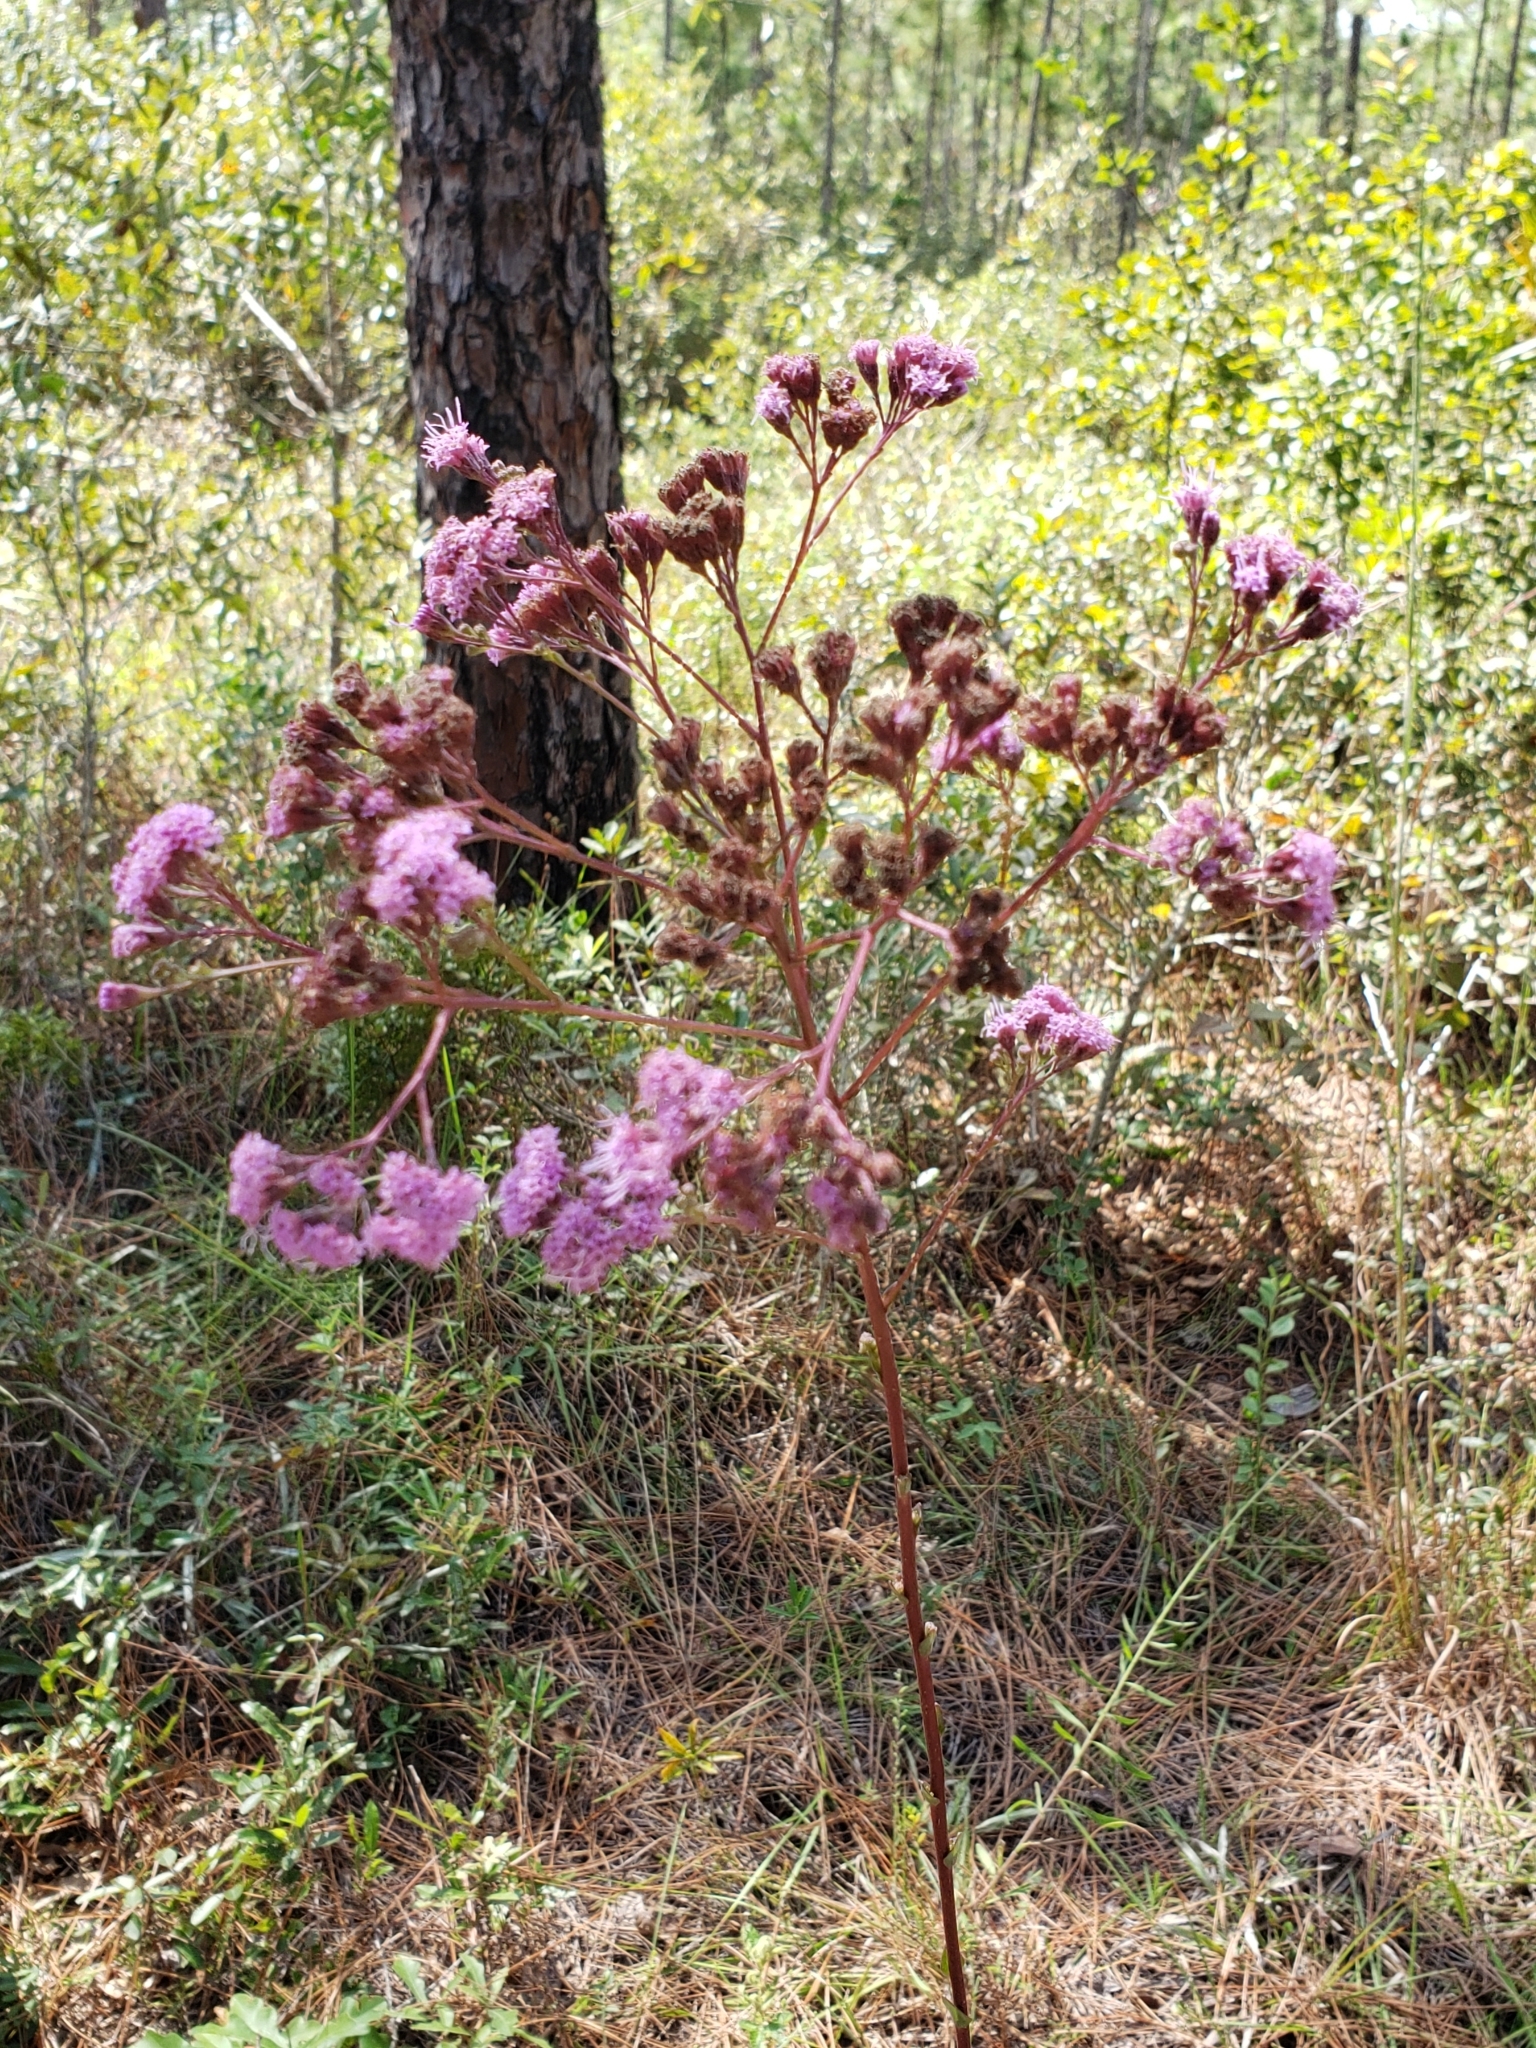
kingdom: Plantae
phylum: Tracheophyta
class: Magnoliopsida
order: Asterales
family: Asteraceae
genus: Carphephorus
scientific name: Carphephorus odoratissimus
